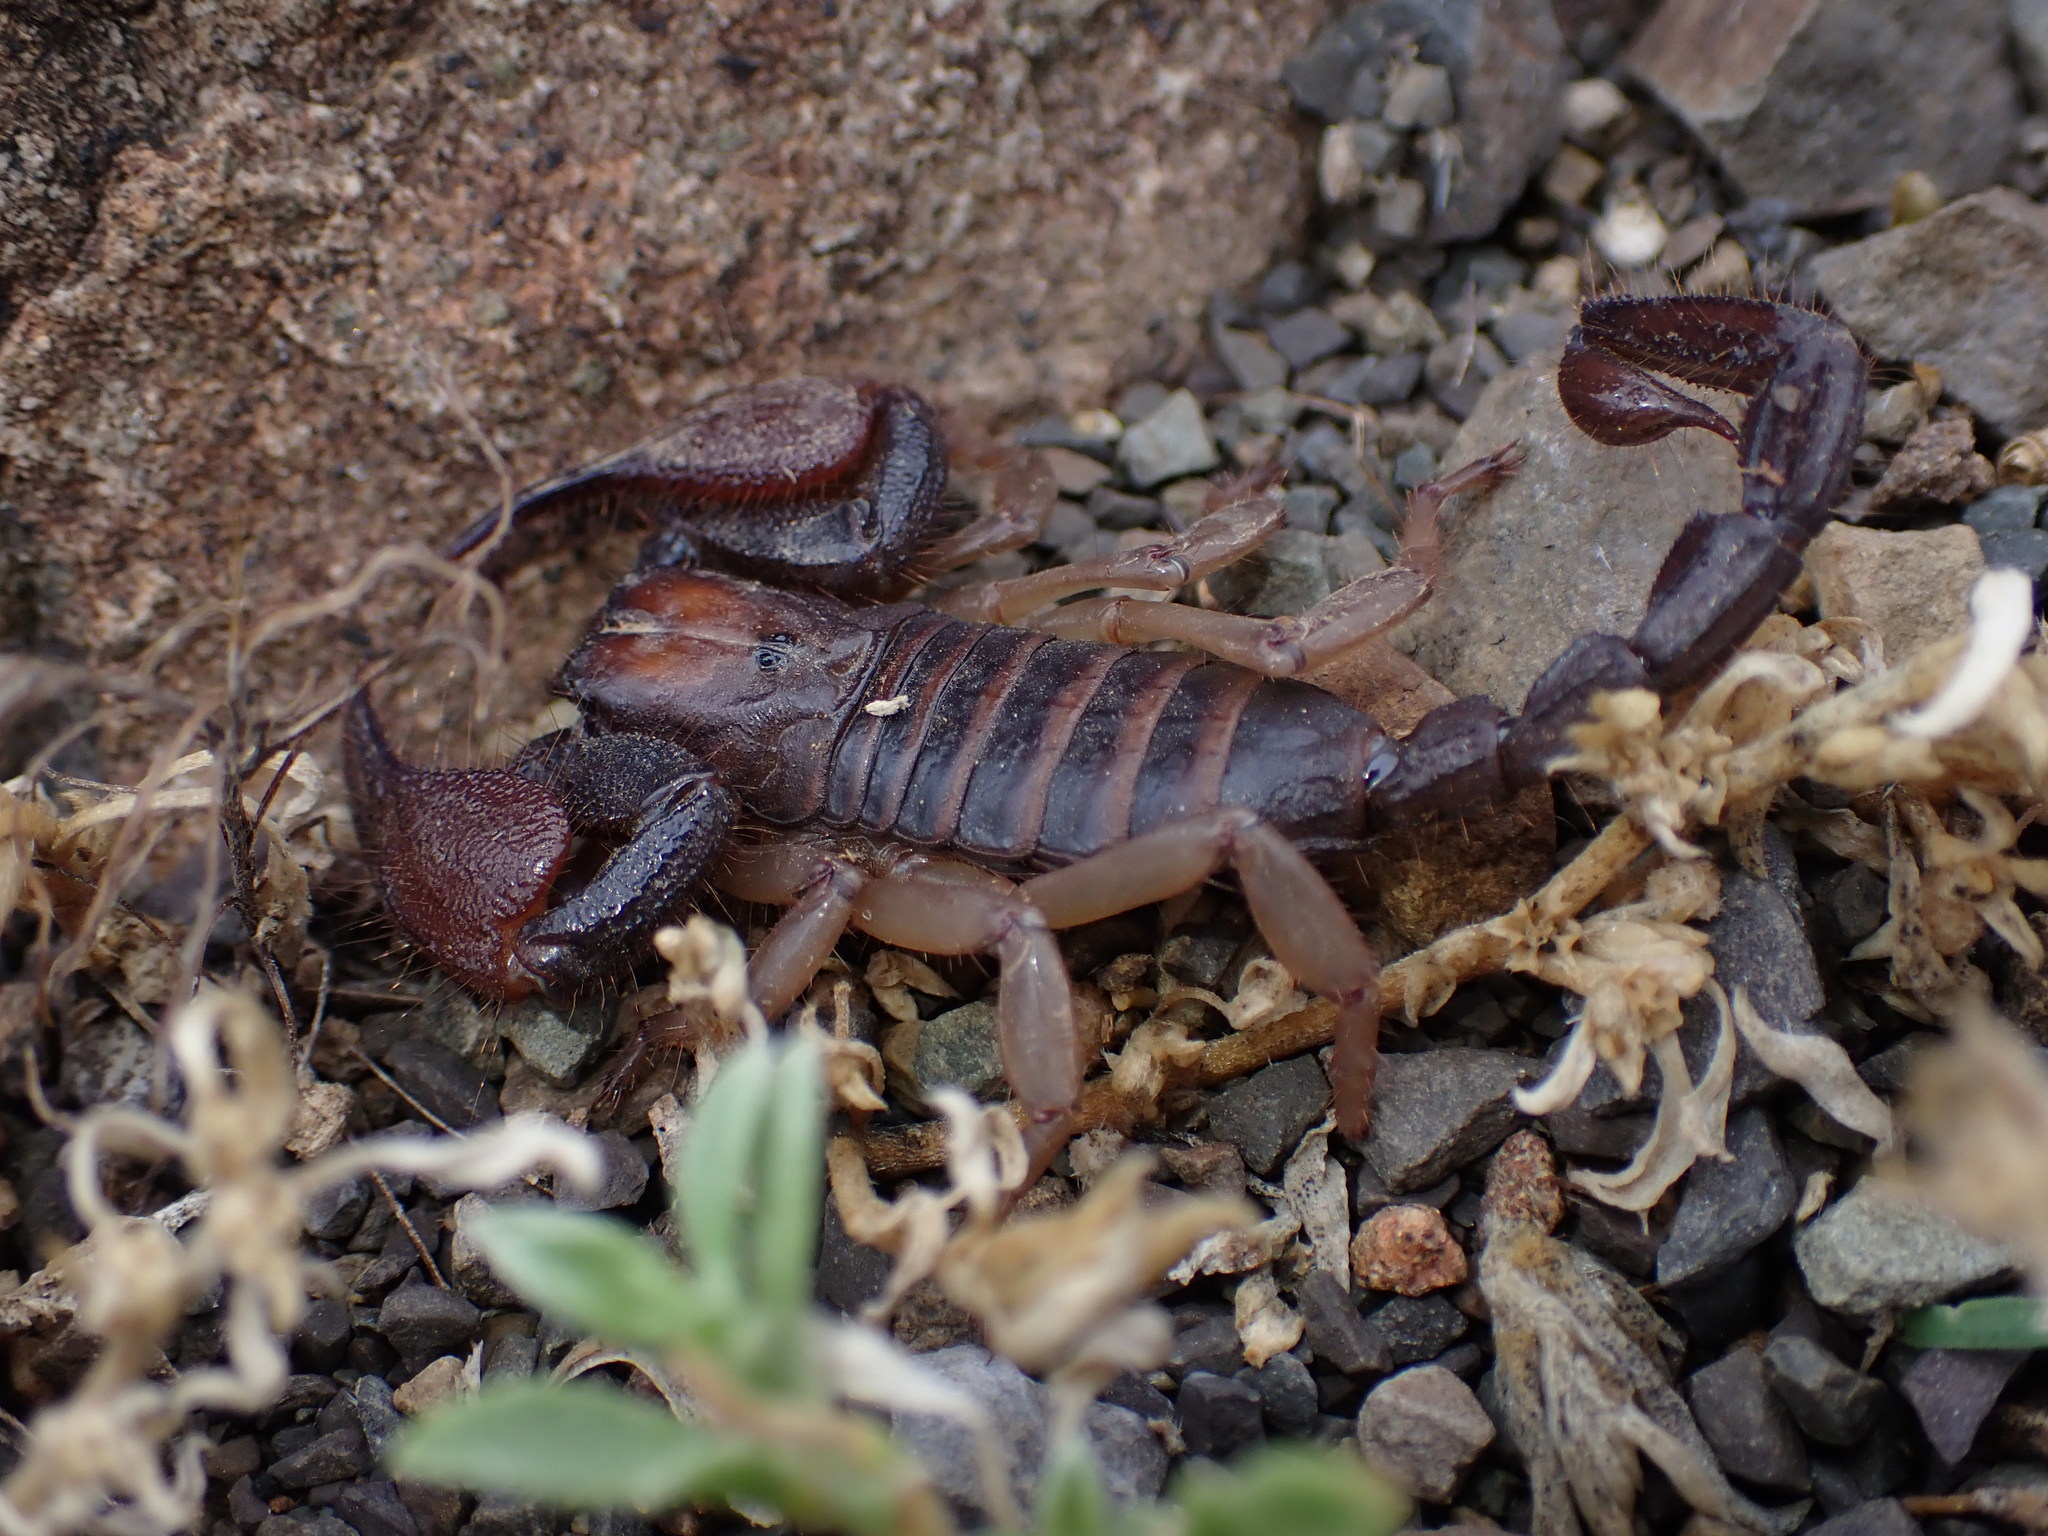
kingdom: Animalia
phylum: Arthropoda
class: Arachnida
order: Scorpiones
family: Scorpionidae
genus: Opistophthalmus
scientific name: Opistophthalmus austerus
